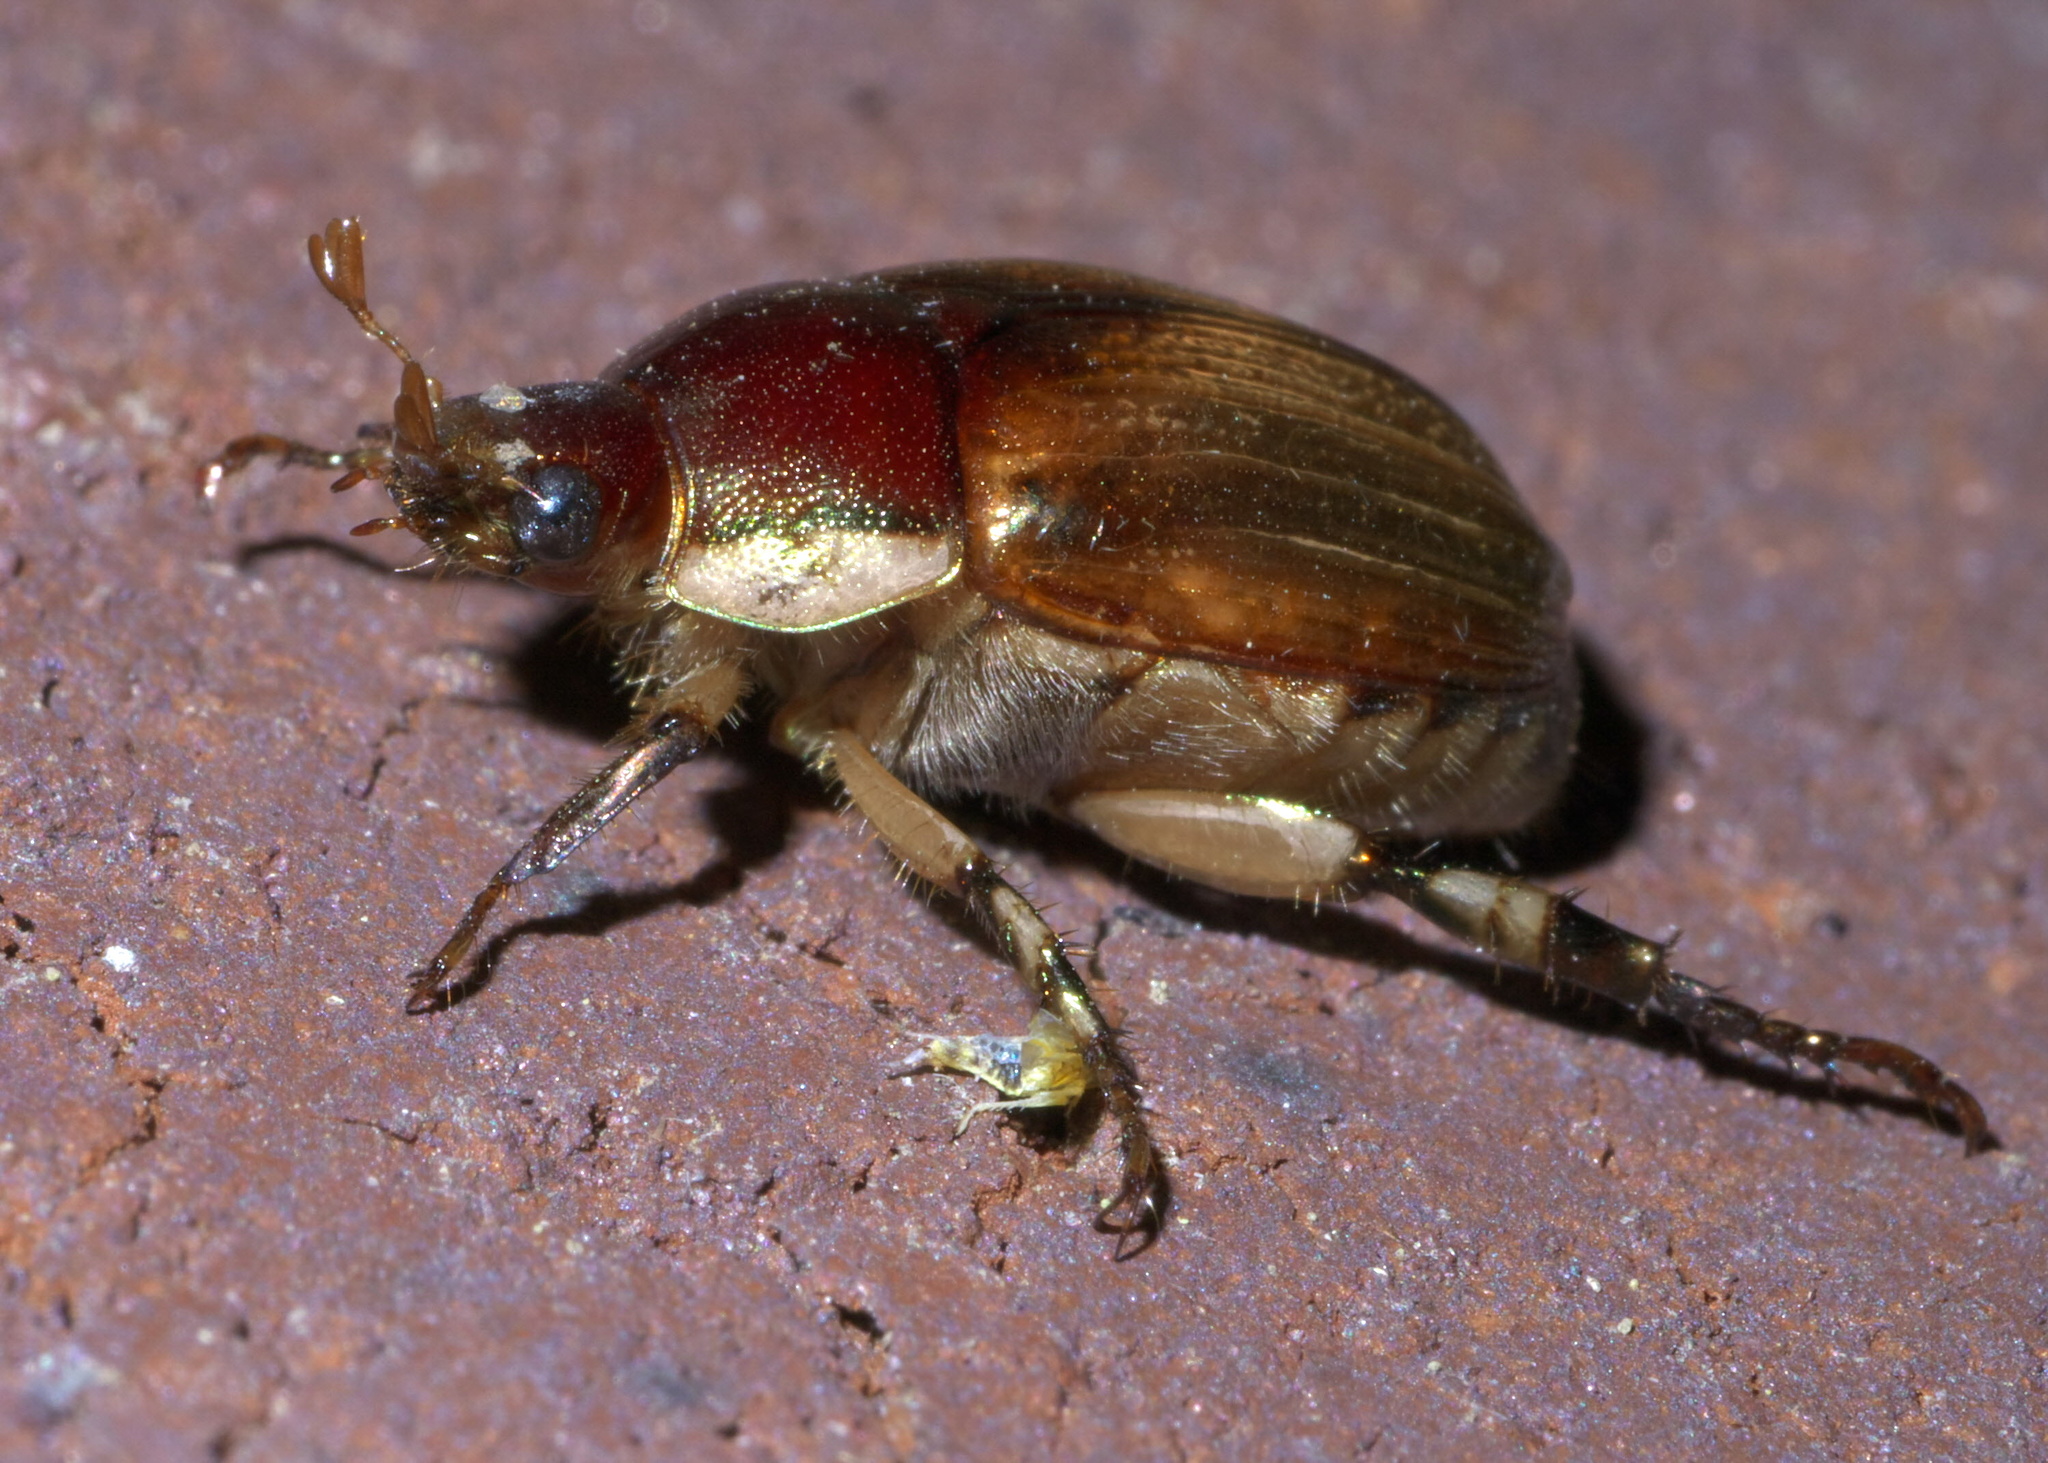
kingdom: Animalia
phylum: Arthropoda
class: Insecta
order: Coleoptera
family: Scarabaeidae
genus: Callistethus
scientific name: Callistethus marginatus
